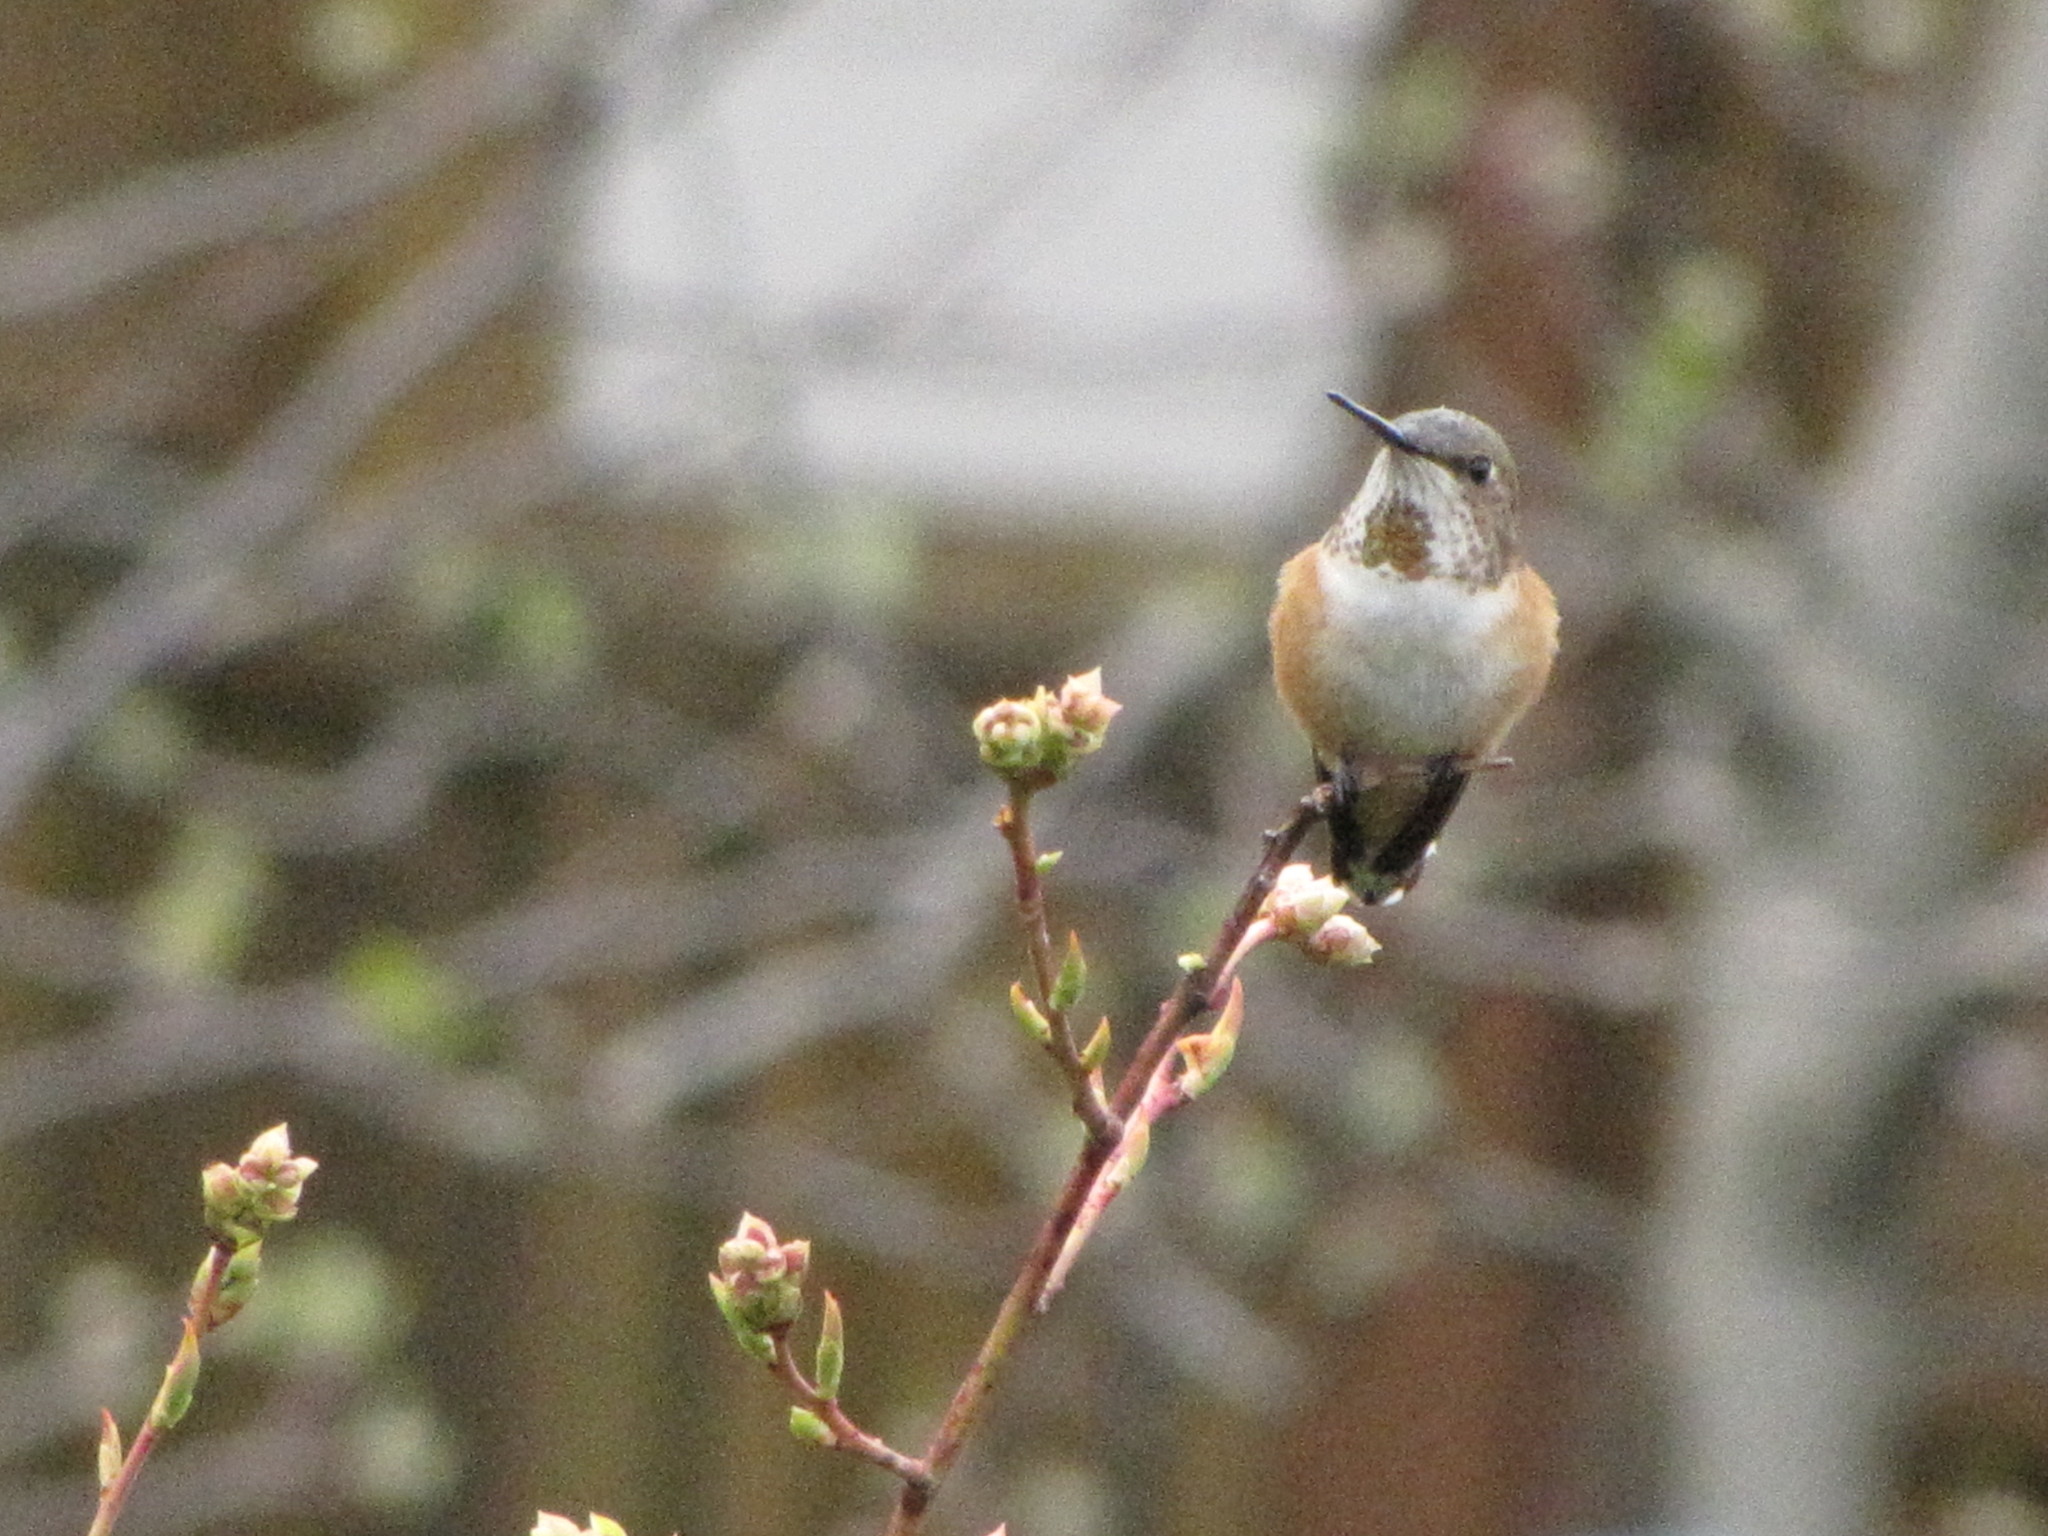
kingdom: Animalia
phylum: Chordata
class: Aves
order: Apodiformes
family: Trochilidae
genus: Selasphorus
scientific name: Selasphorus rufus
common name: Rufous hummingbird
